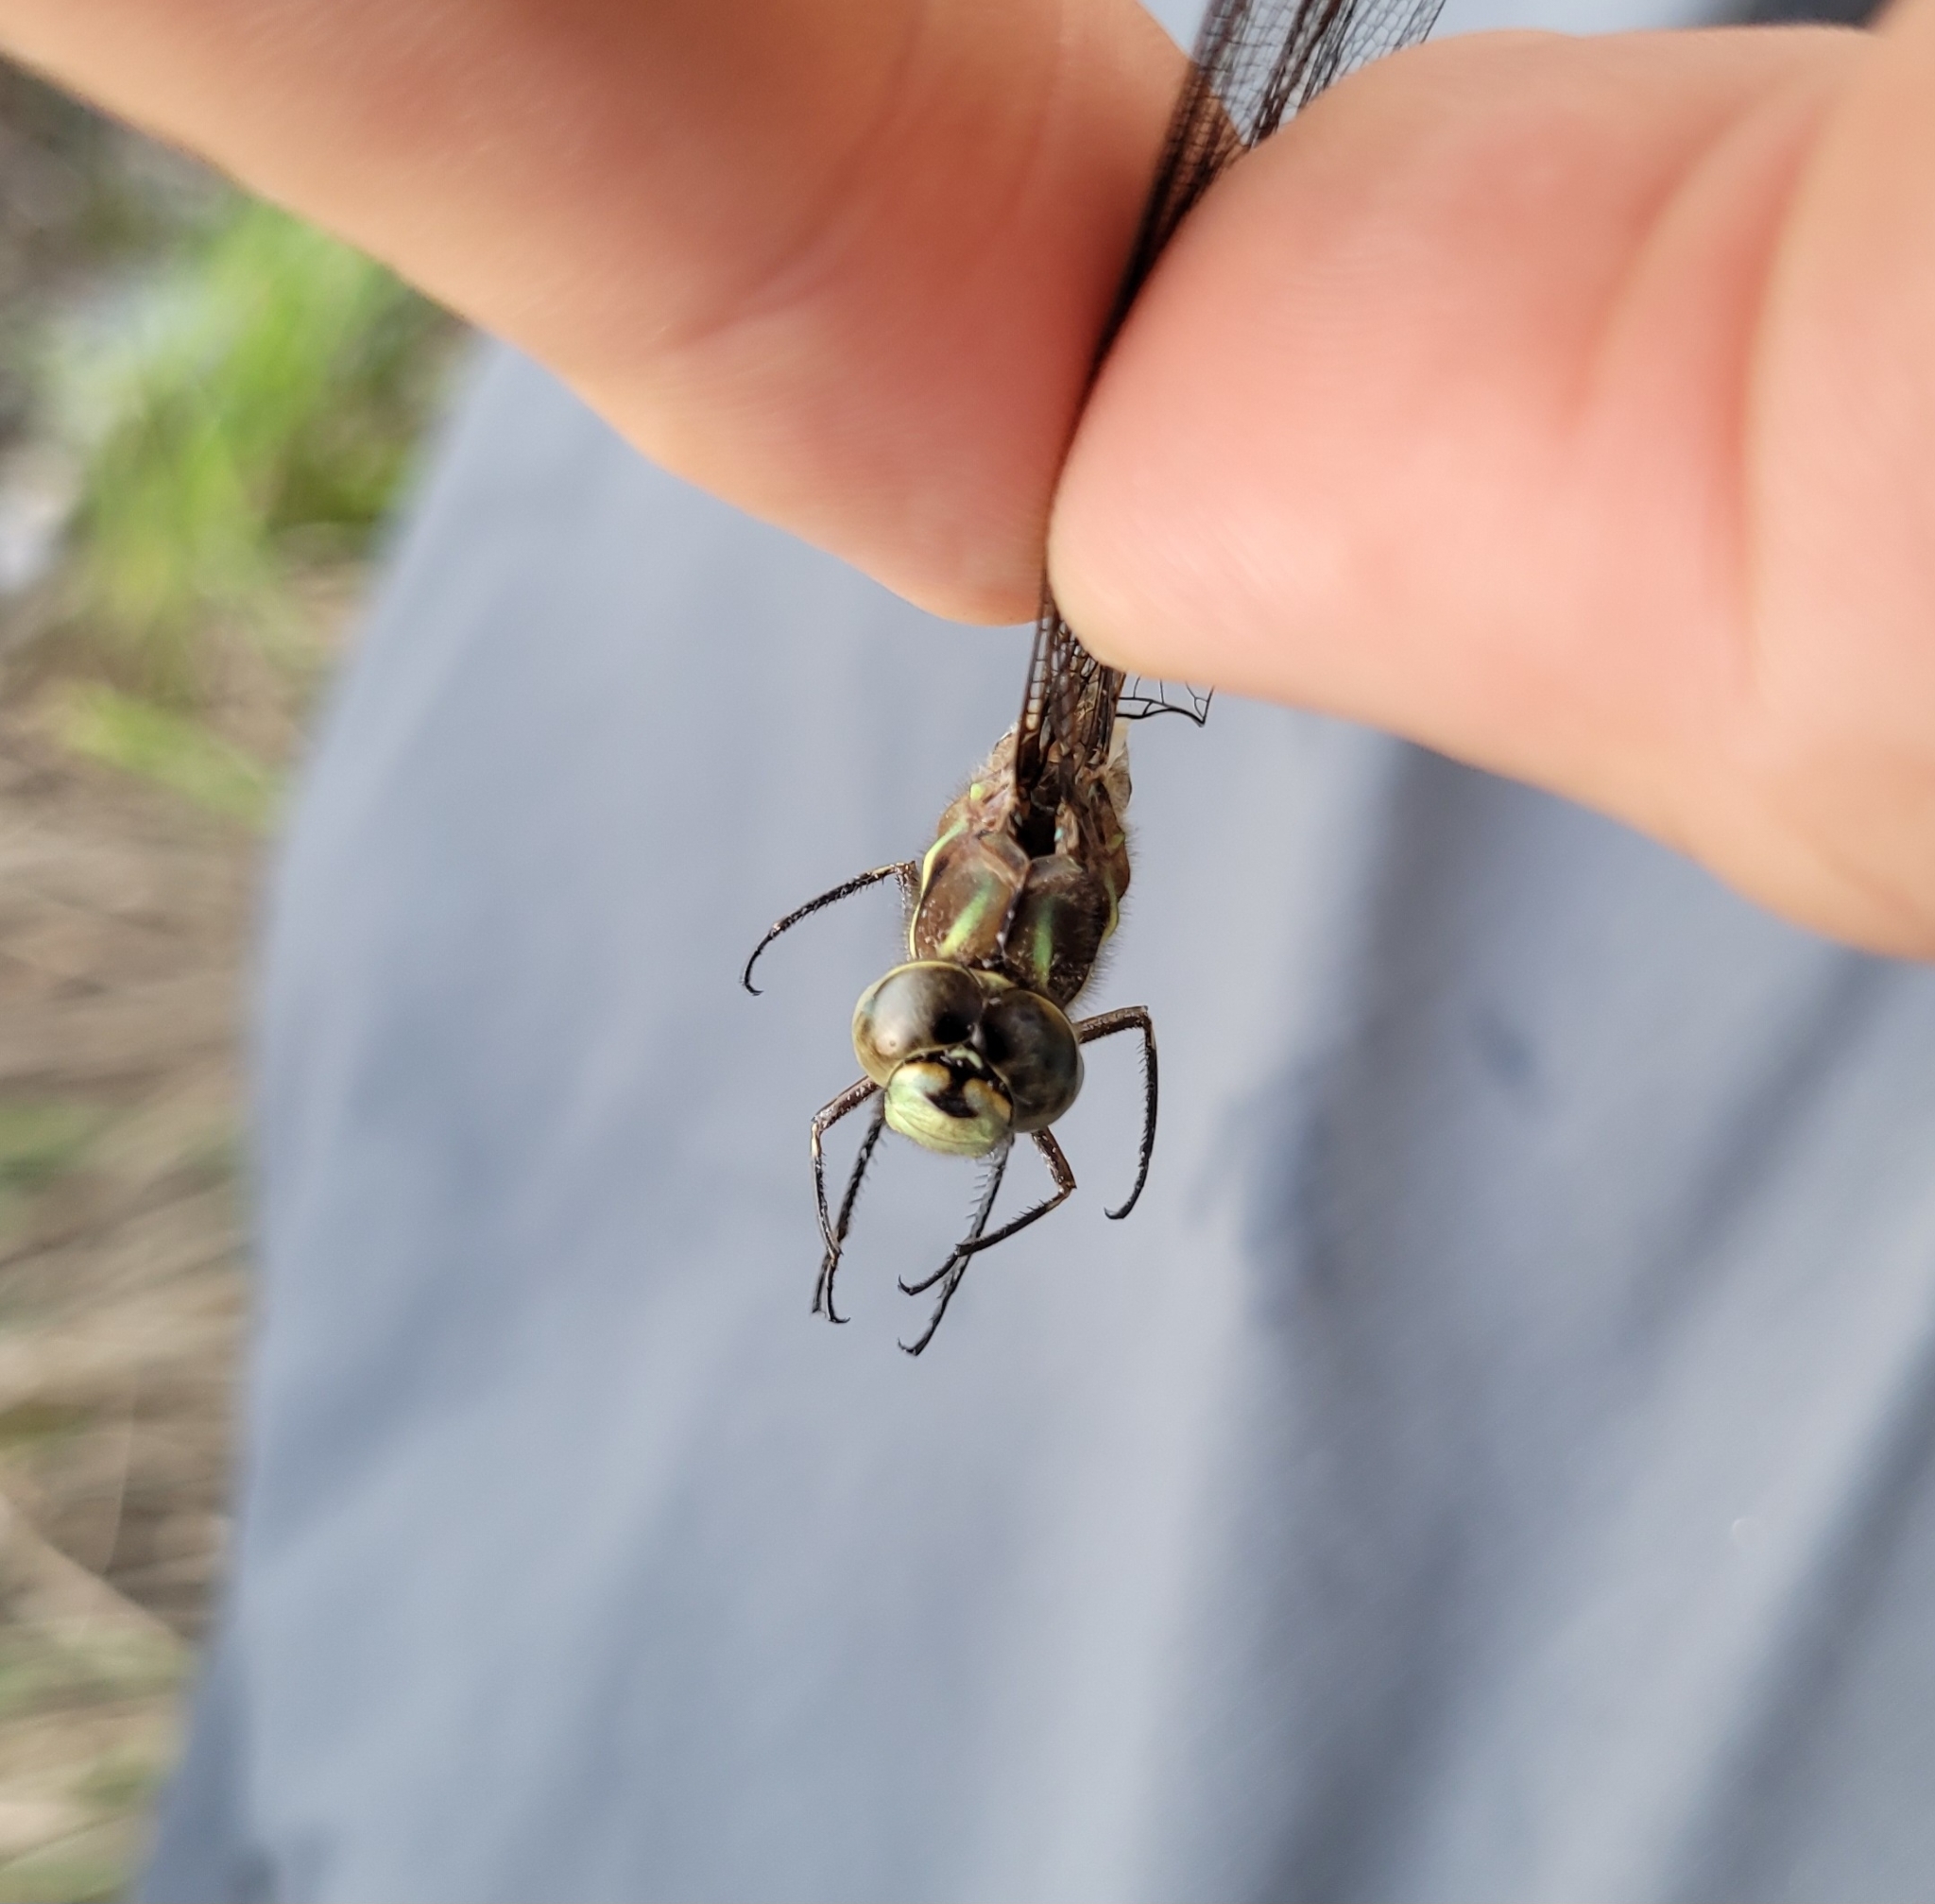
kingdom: Animalia
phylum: Arthropoda
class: Insecta
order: Odonata
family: Aeshnidae
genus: Basiaeschna
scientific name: Basiaeschna janata
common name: Springtime darner
